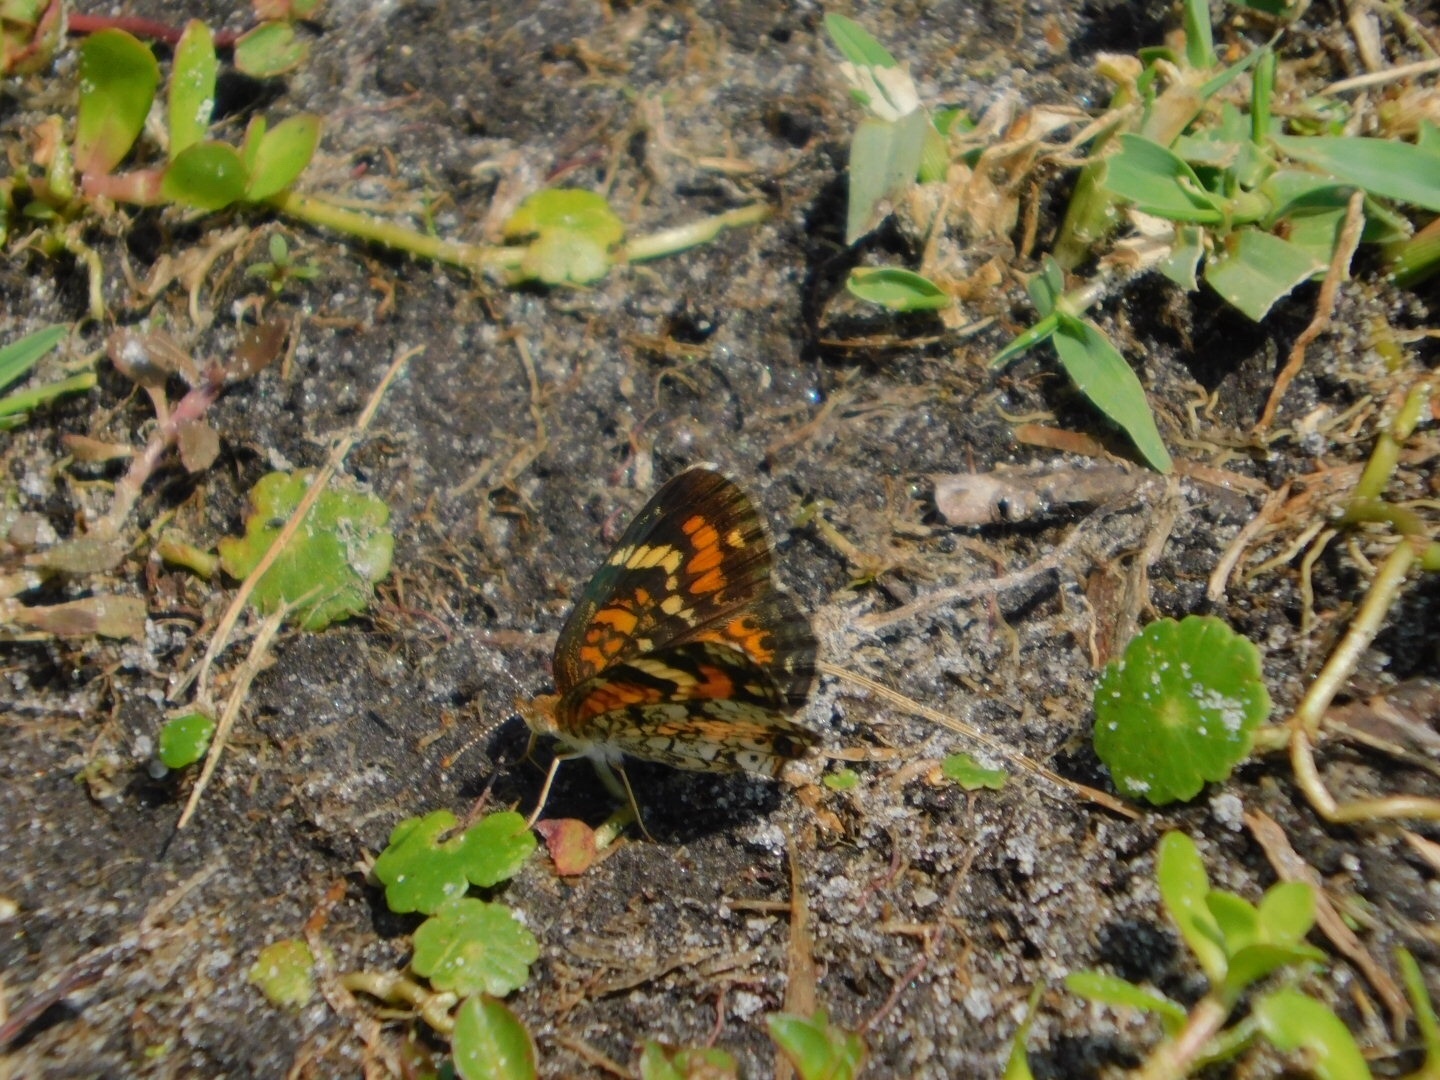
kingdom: Animalia
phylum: Arthropoda
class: Insecta
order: Lepidoptera
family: Nymphalidae
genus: Phyciodes
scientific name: Phyciodes phaon
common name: Phaon crescent
